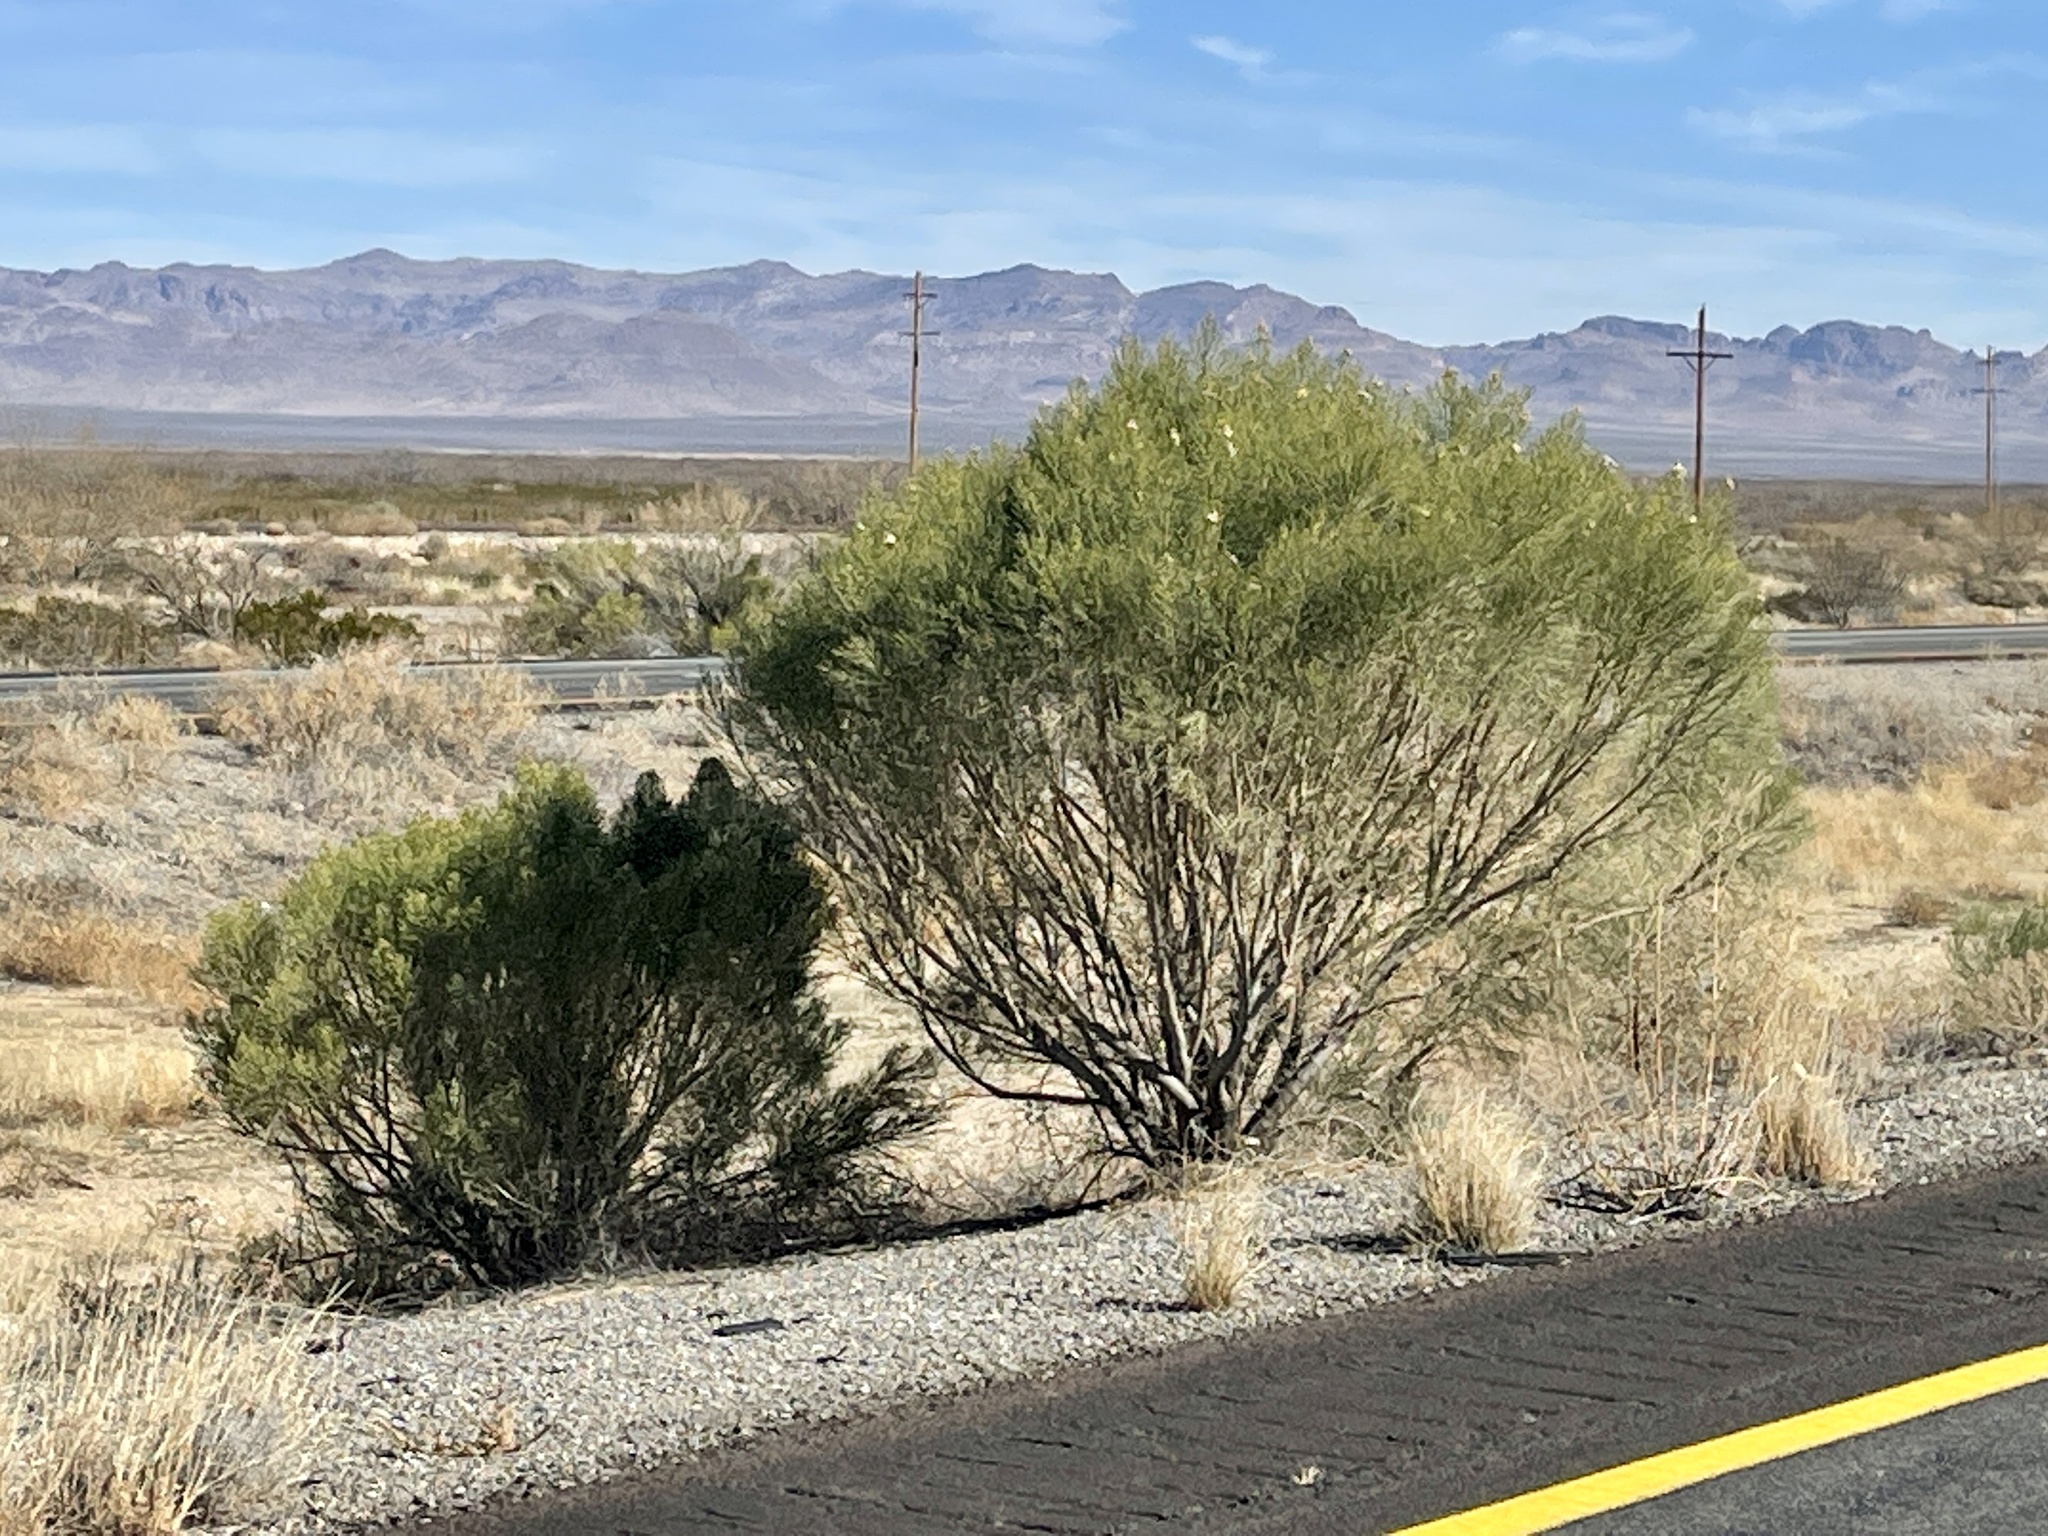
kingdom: Plantae
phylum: Tracheophyta
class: Magnoliopsida
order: Asterales
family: Asteraceae
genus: Baccharis
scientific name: Baccharis sarothroides
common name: Desert-broom
